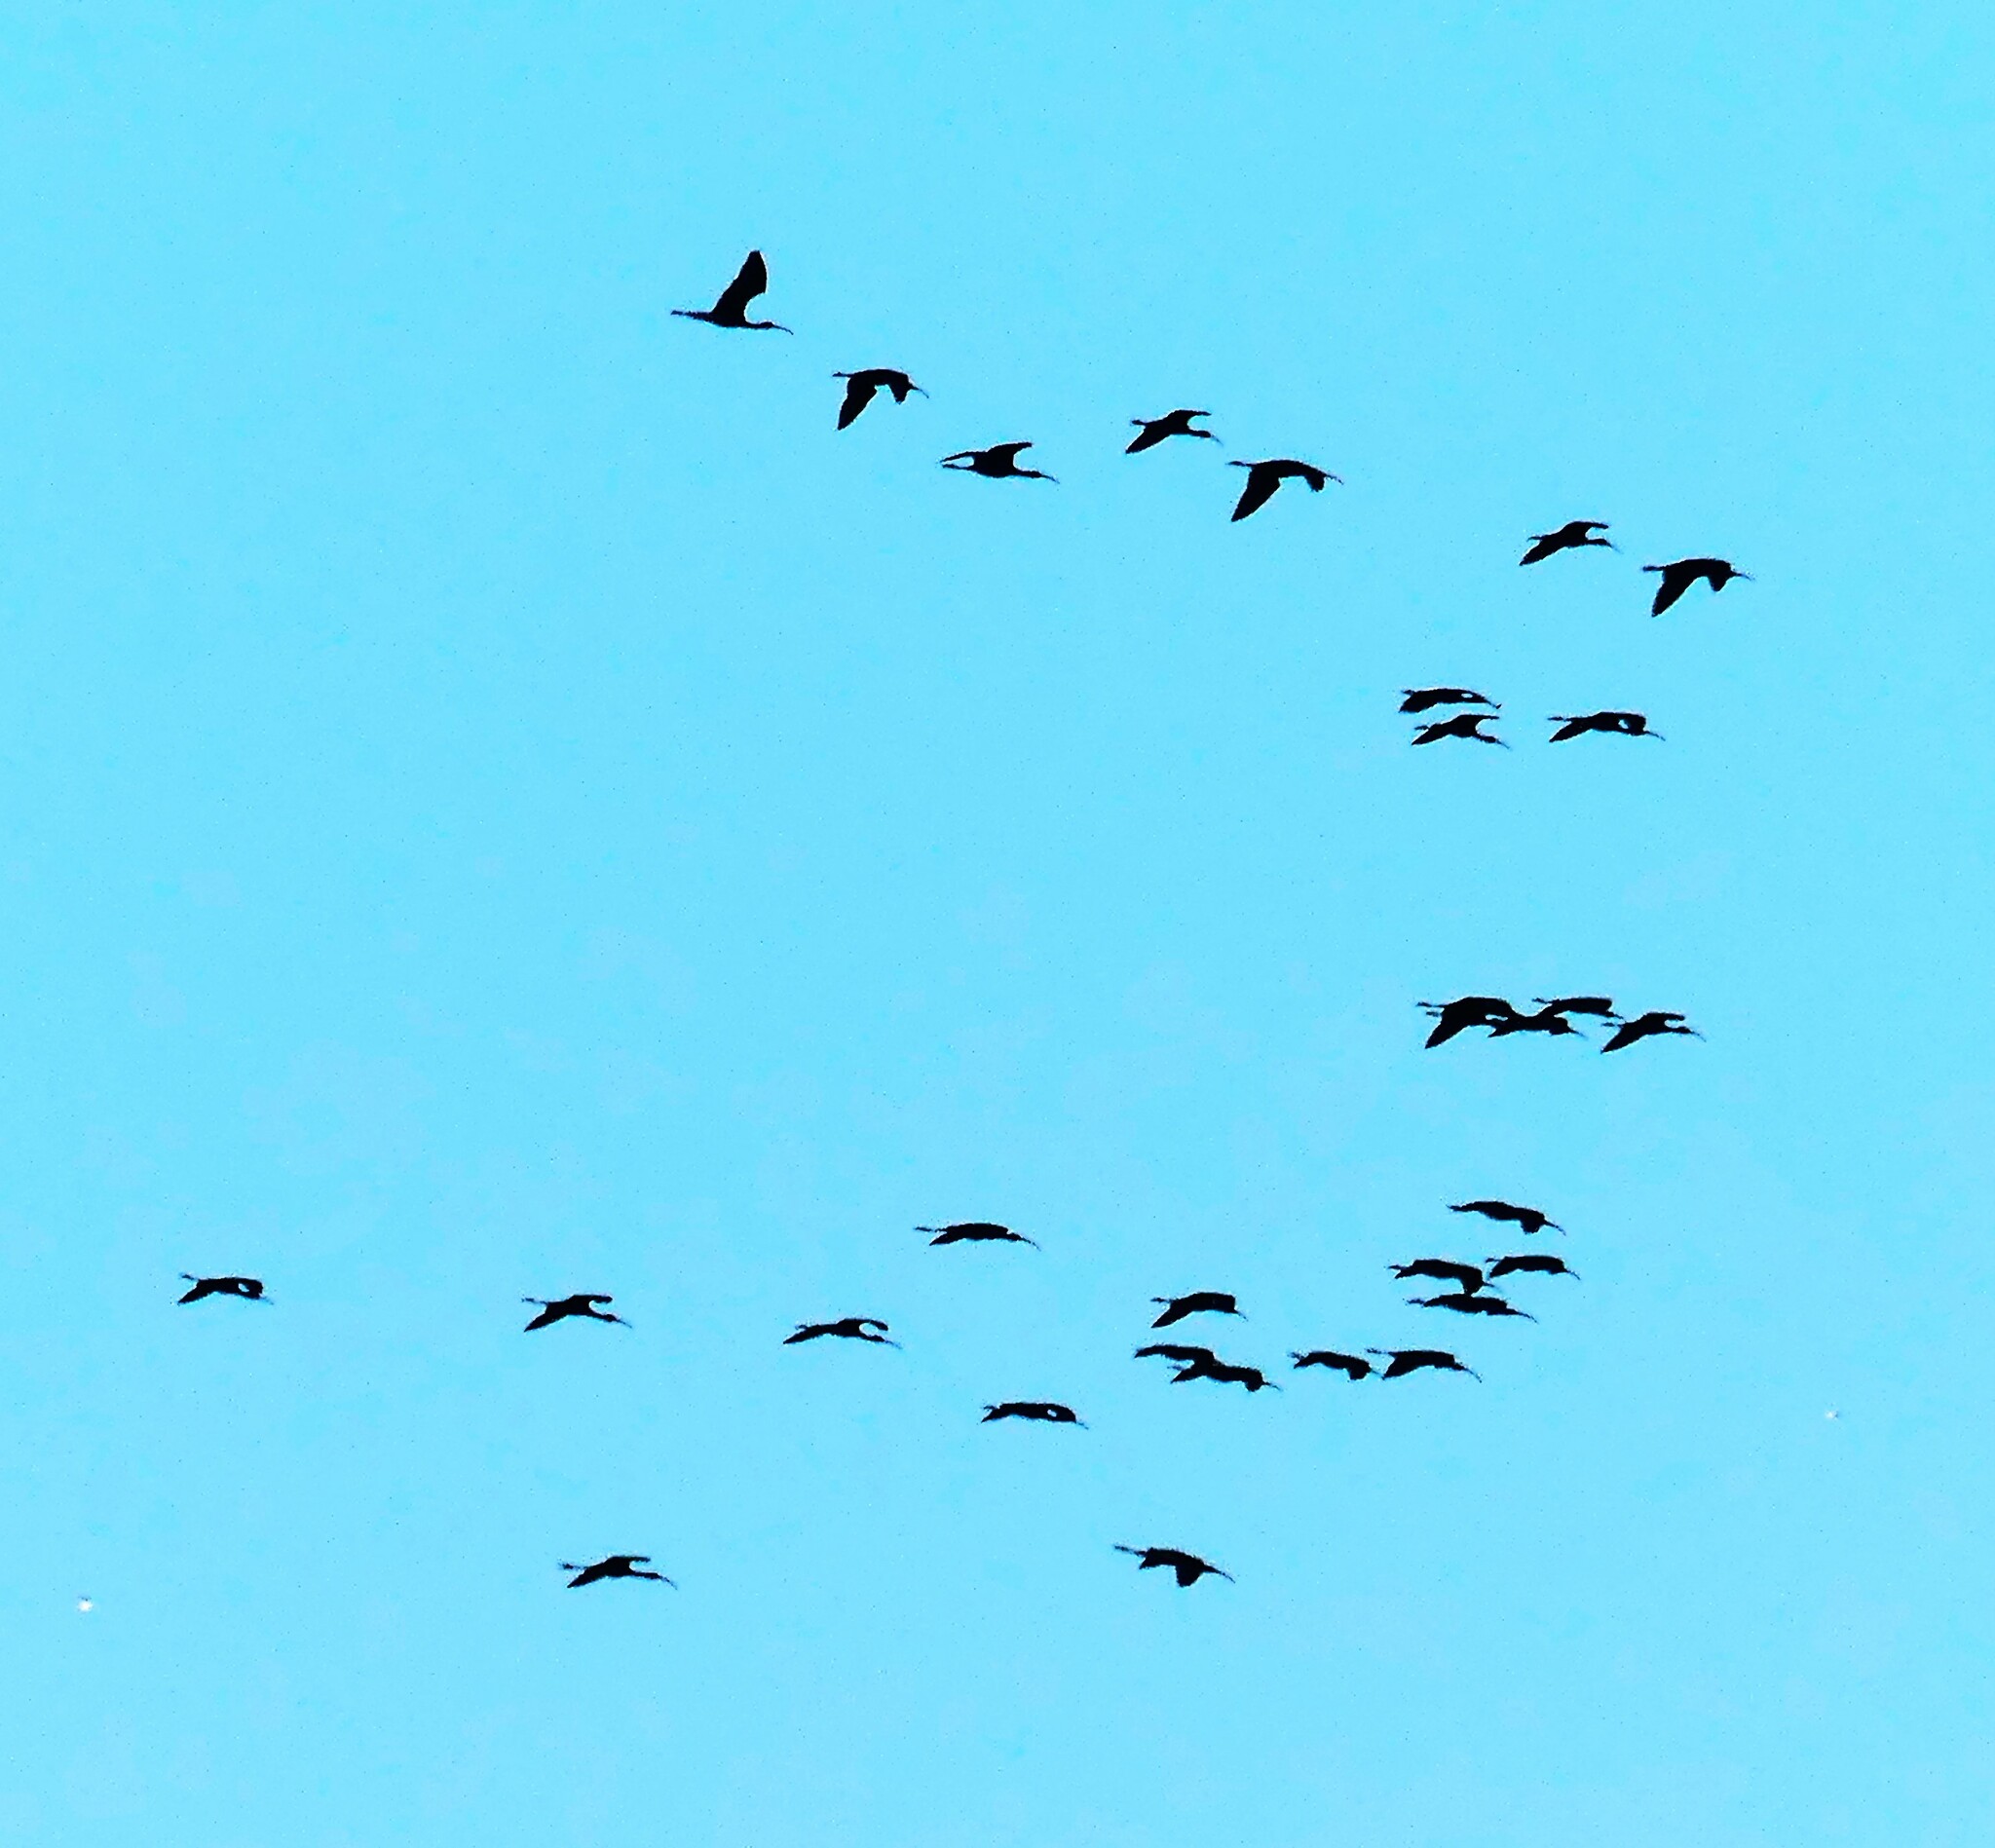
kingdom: Animalia
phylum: Chordata
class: Aves
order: Pelecaniformes
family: Threskiornithidae
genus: Plegadis
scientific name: Plegadis falcinellus
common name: Glossy ibis
